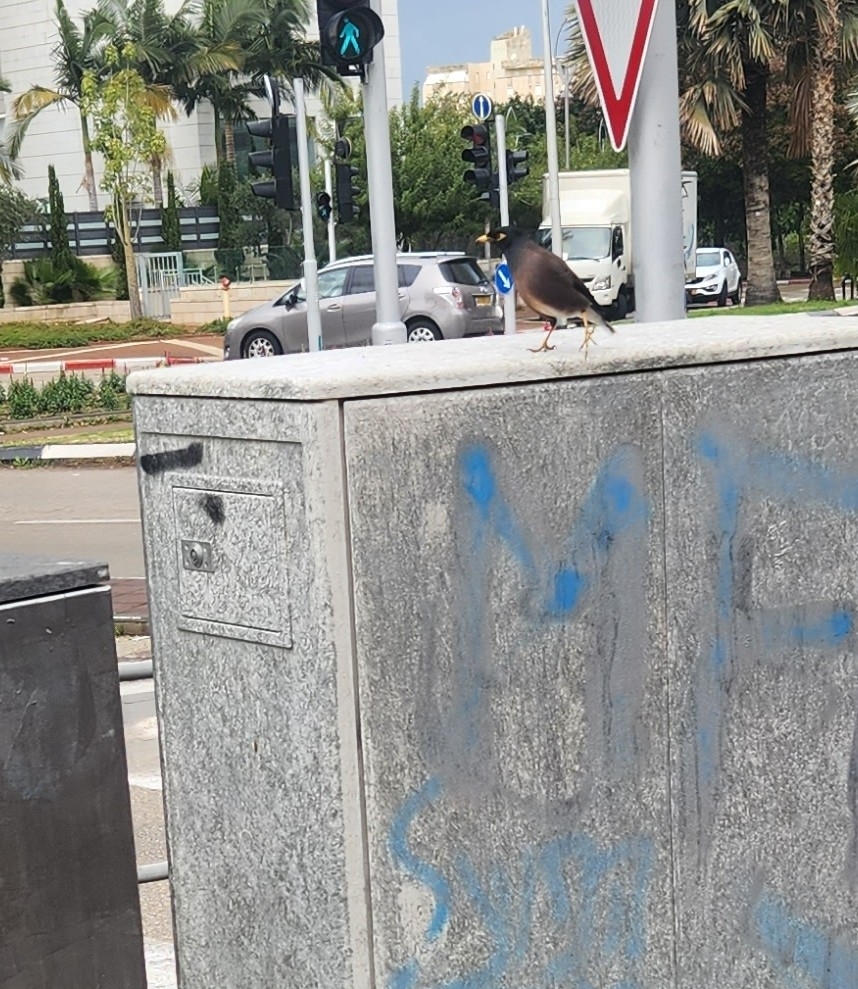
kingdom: Animalia
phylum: Chordata
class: Aves
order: Passeriformes
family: Sturnidae
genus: Acridotheres
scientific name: Acridotheres tristis
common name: Common myna
